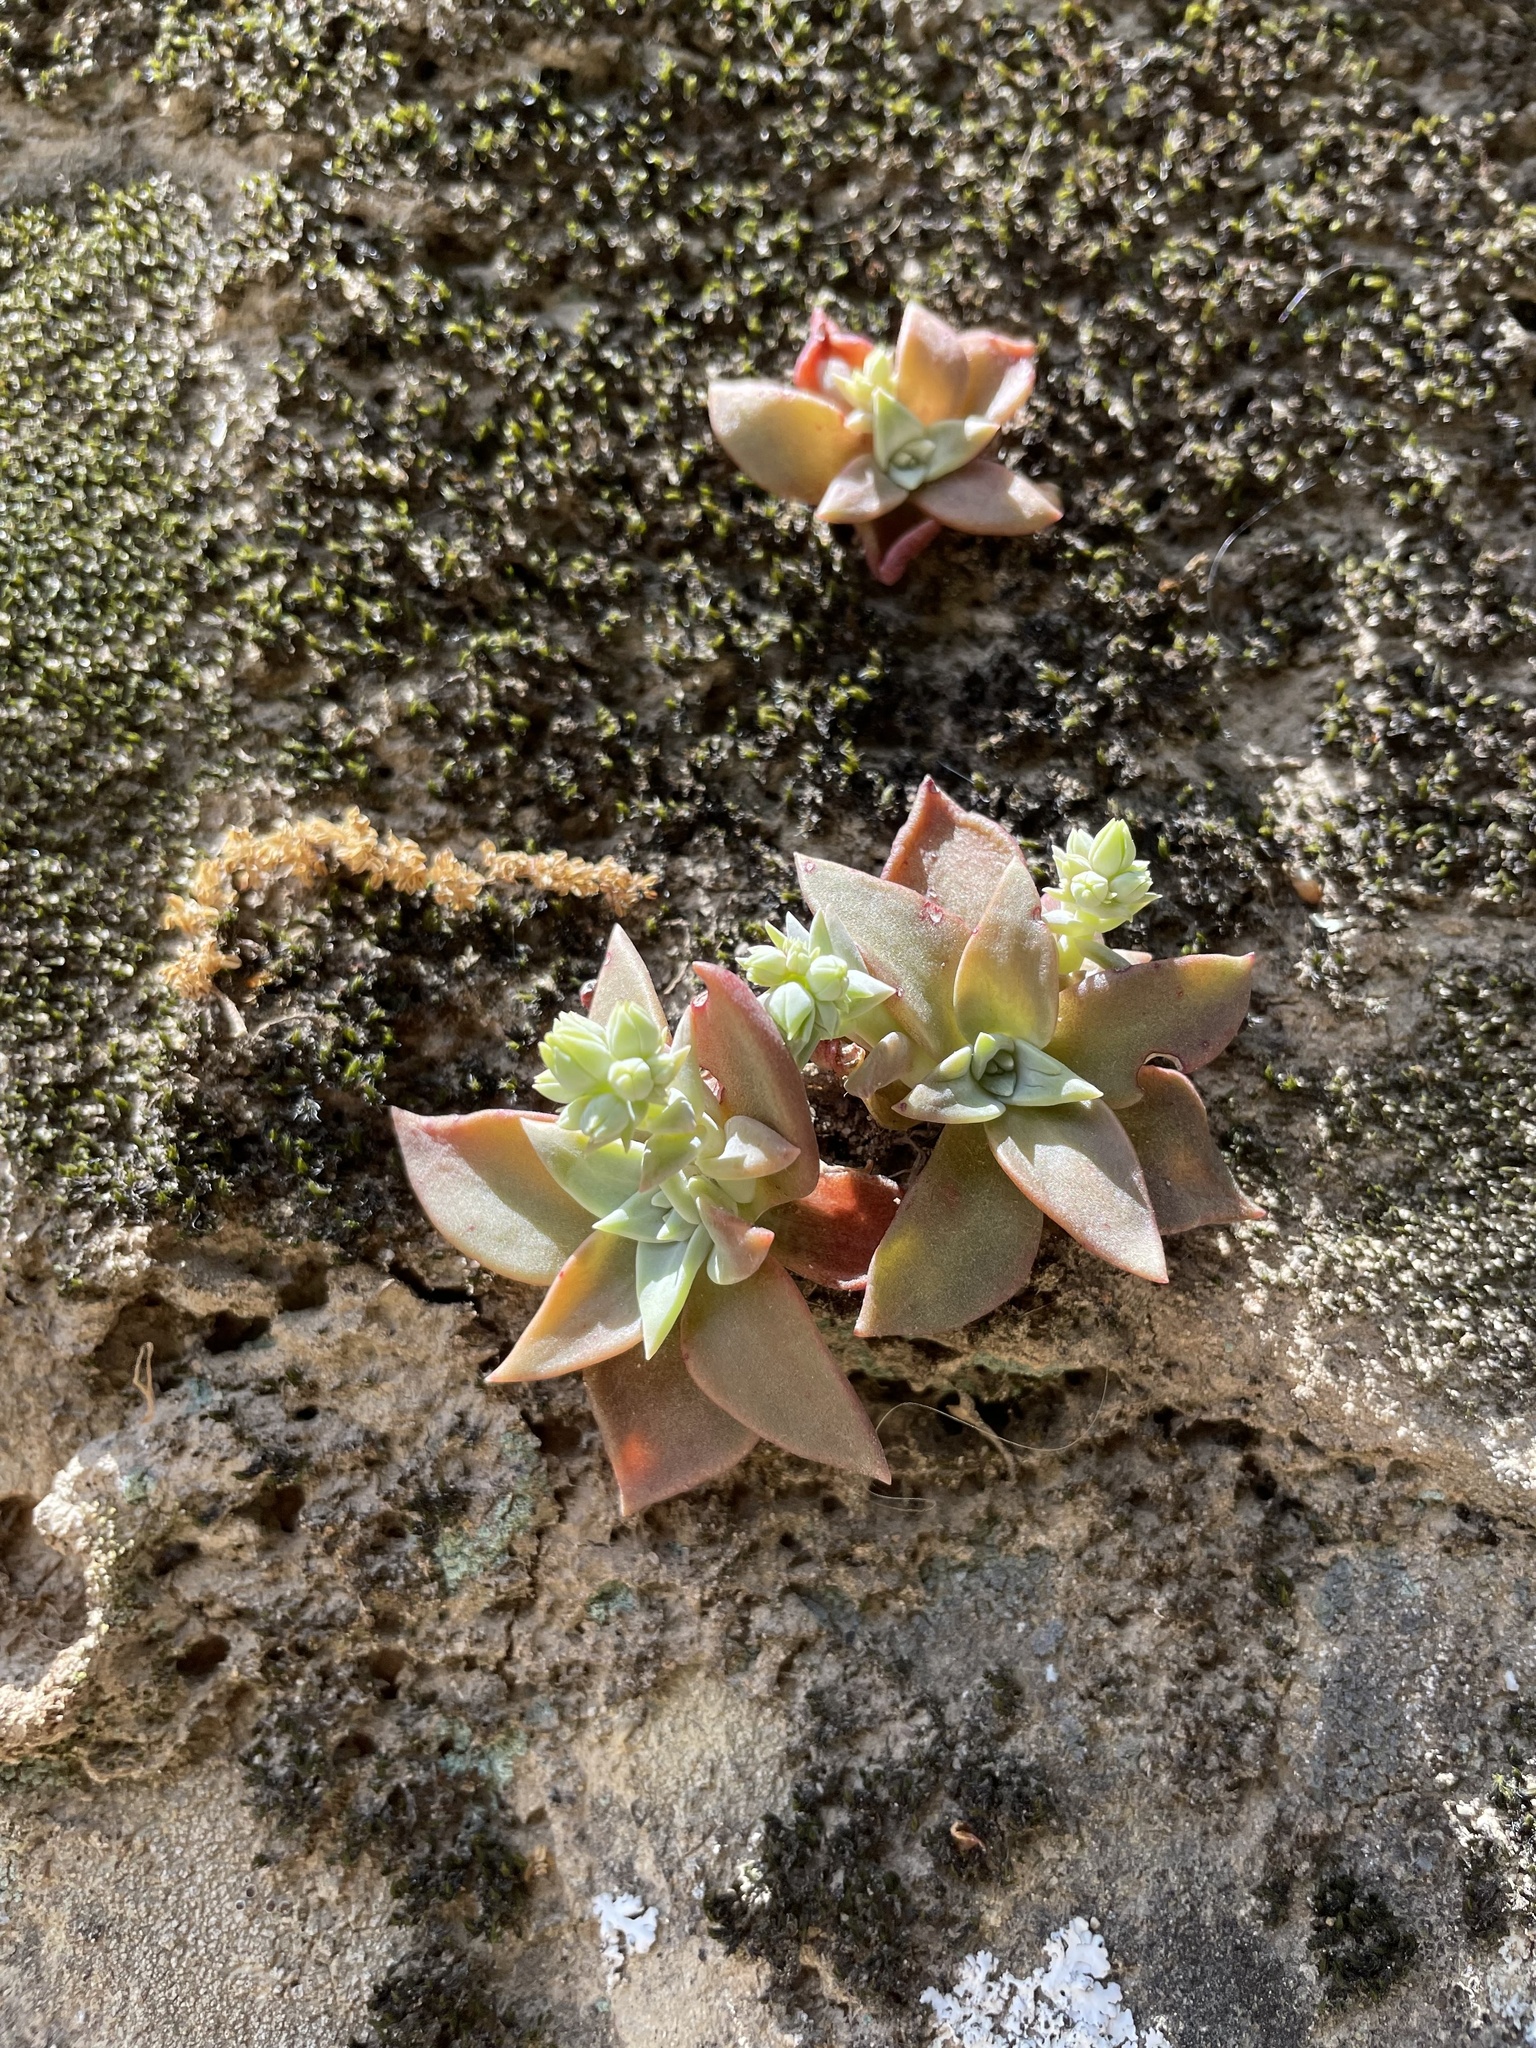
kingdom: Plantae
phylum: Tracheophyta
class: Magnoliopsida
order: Saxifragales
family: Crassulaceae
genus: Dudleya
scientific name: Dudleya cymosa
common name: Canyon dudleya
